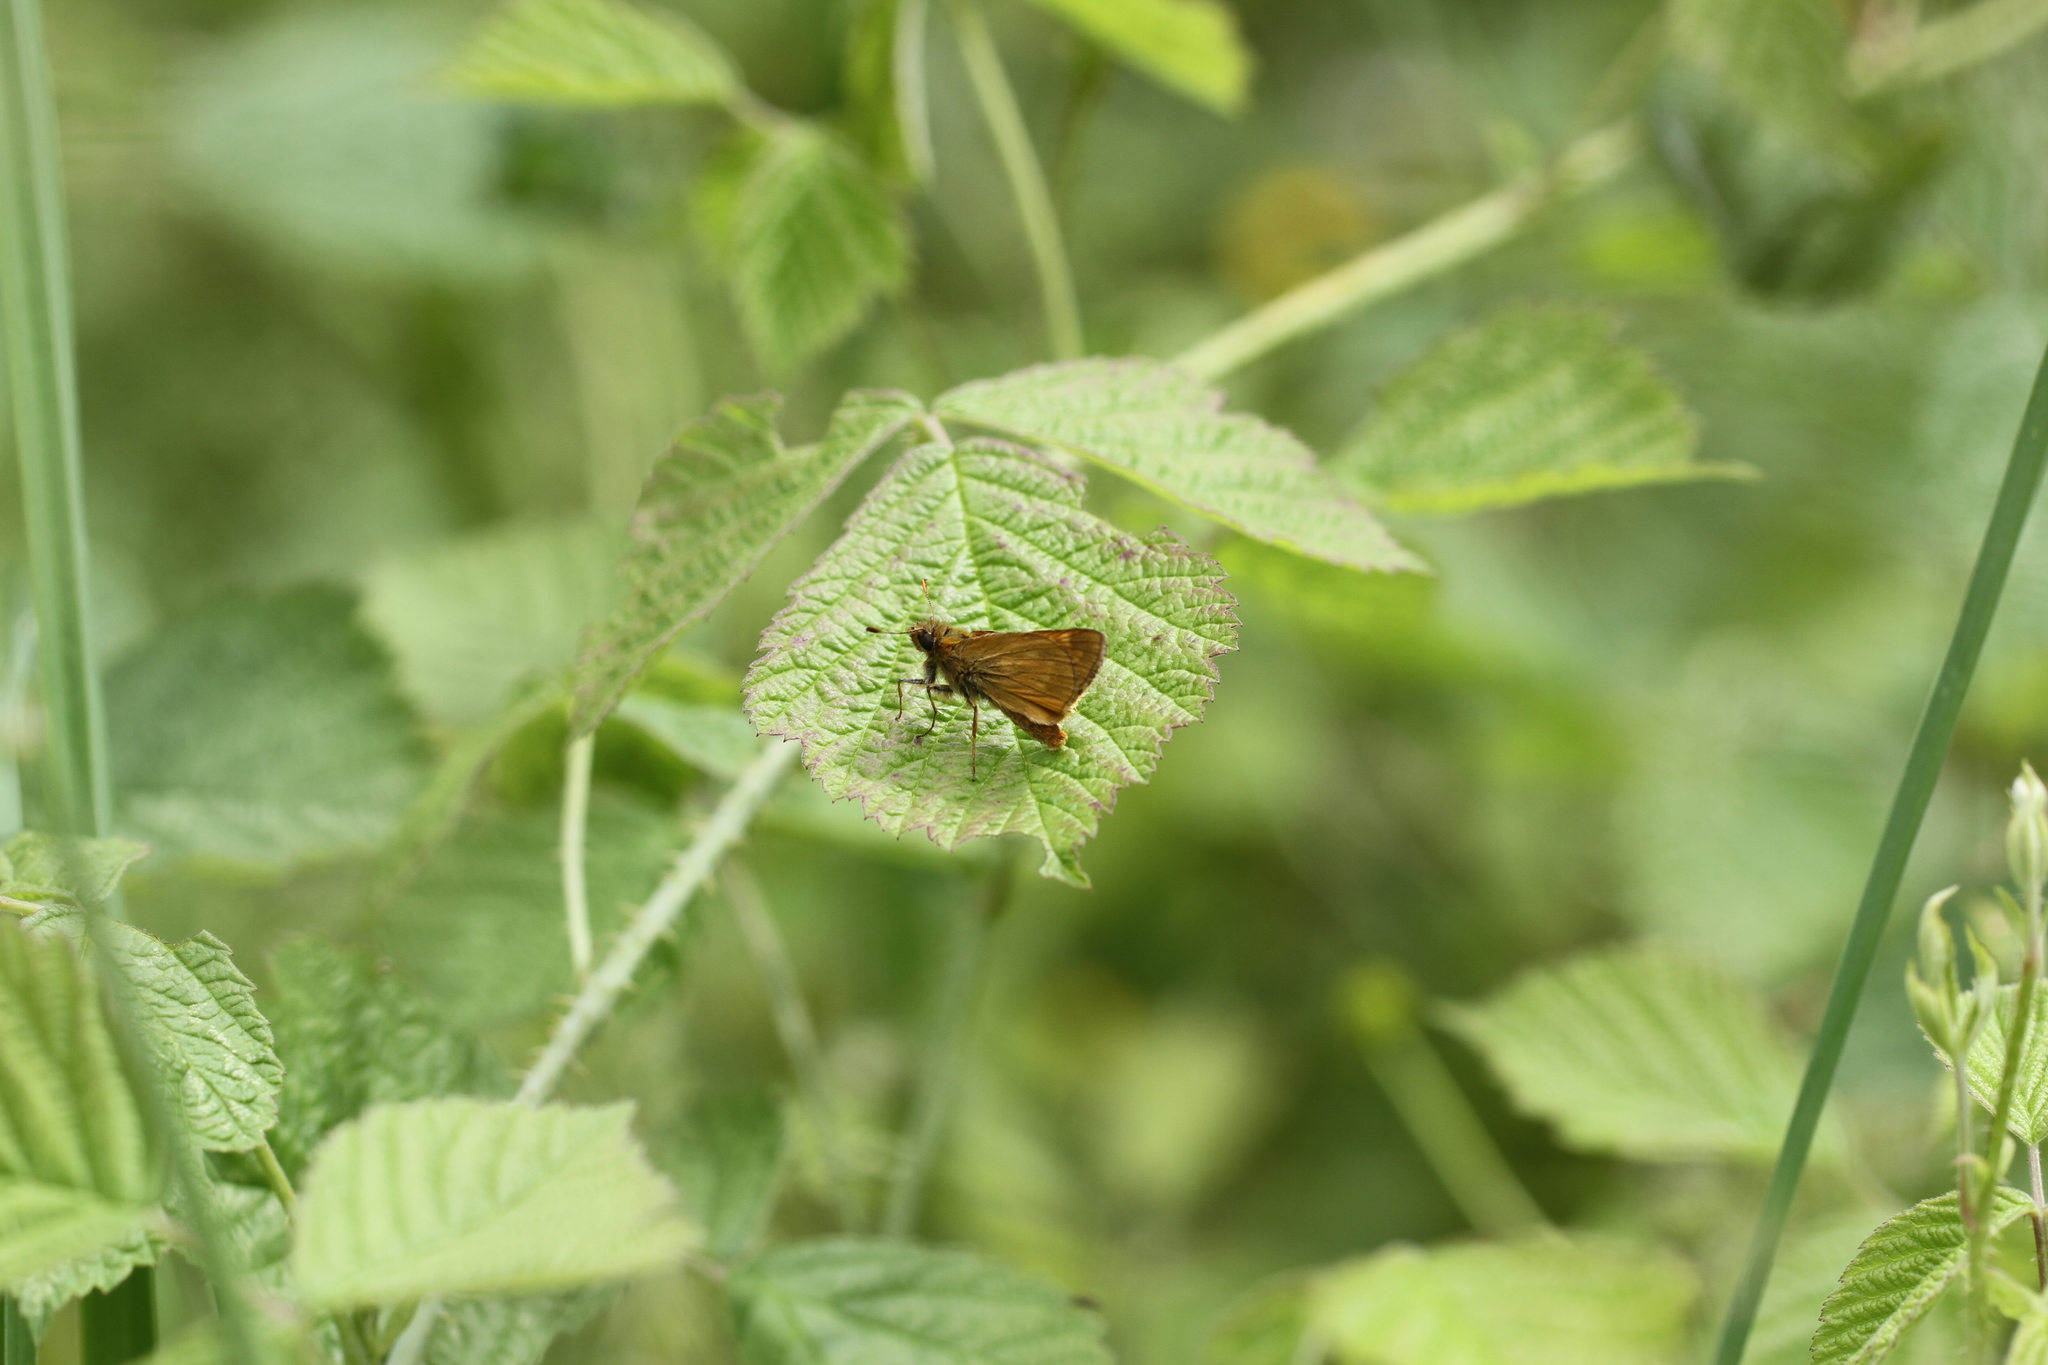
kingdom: Animalia
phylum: Arthropoda
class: Insecta
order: Lepidoptera
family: Hesperiidae
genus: Ochlodes
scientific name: Ochlodes venata
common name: Large skipper
